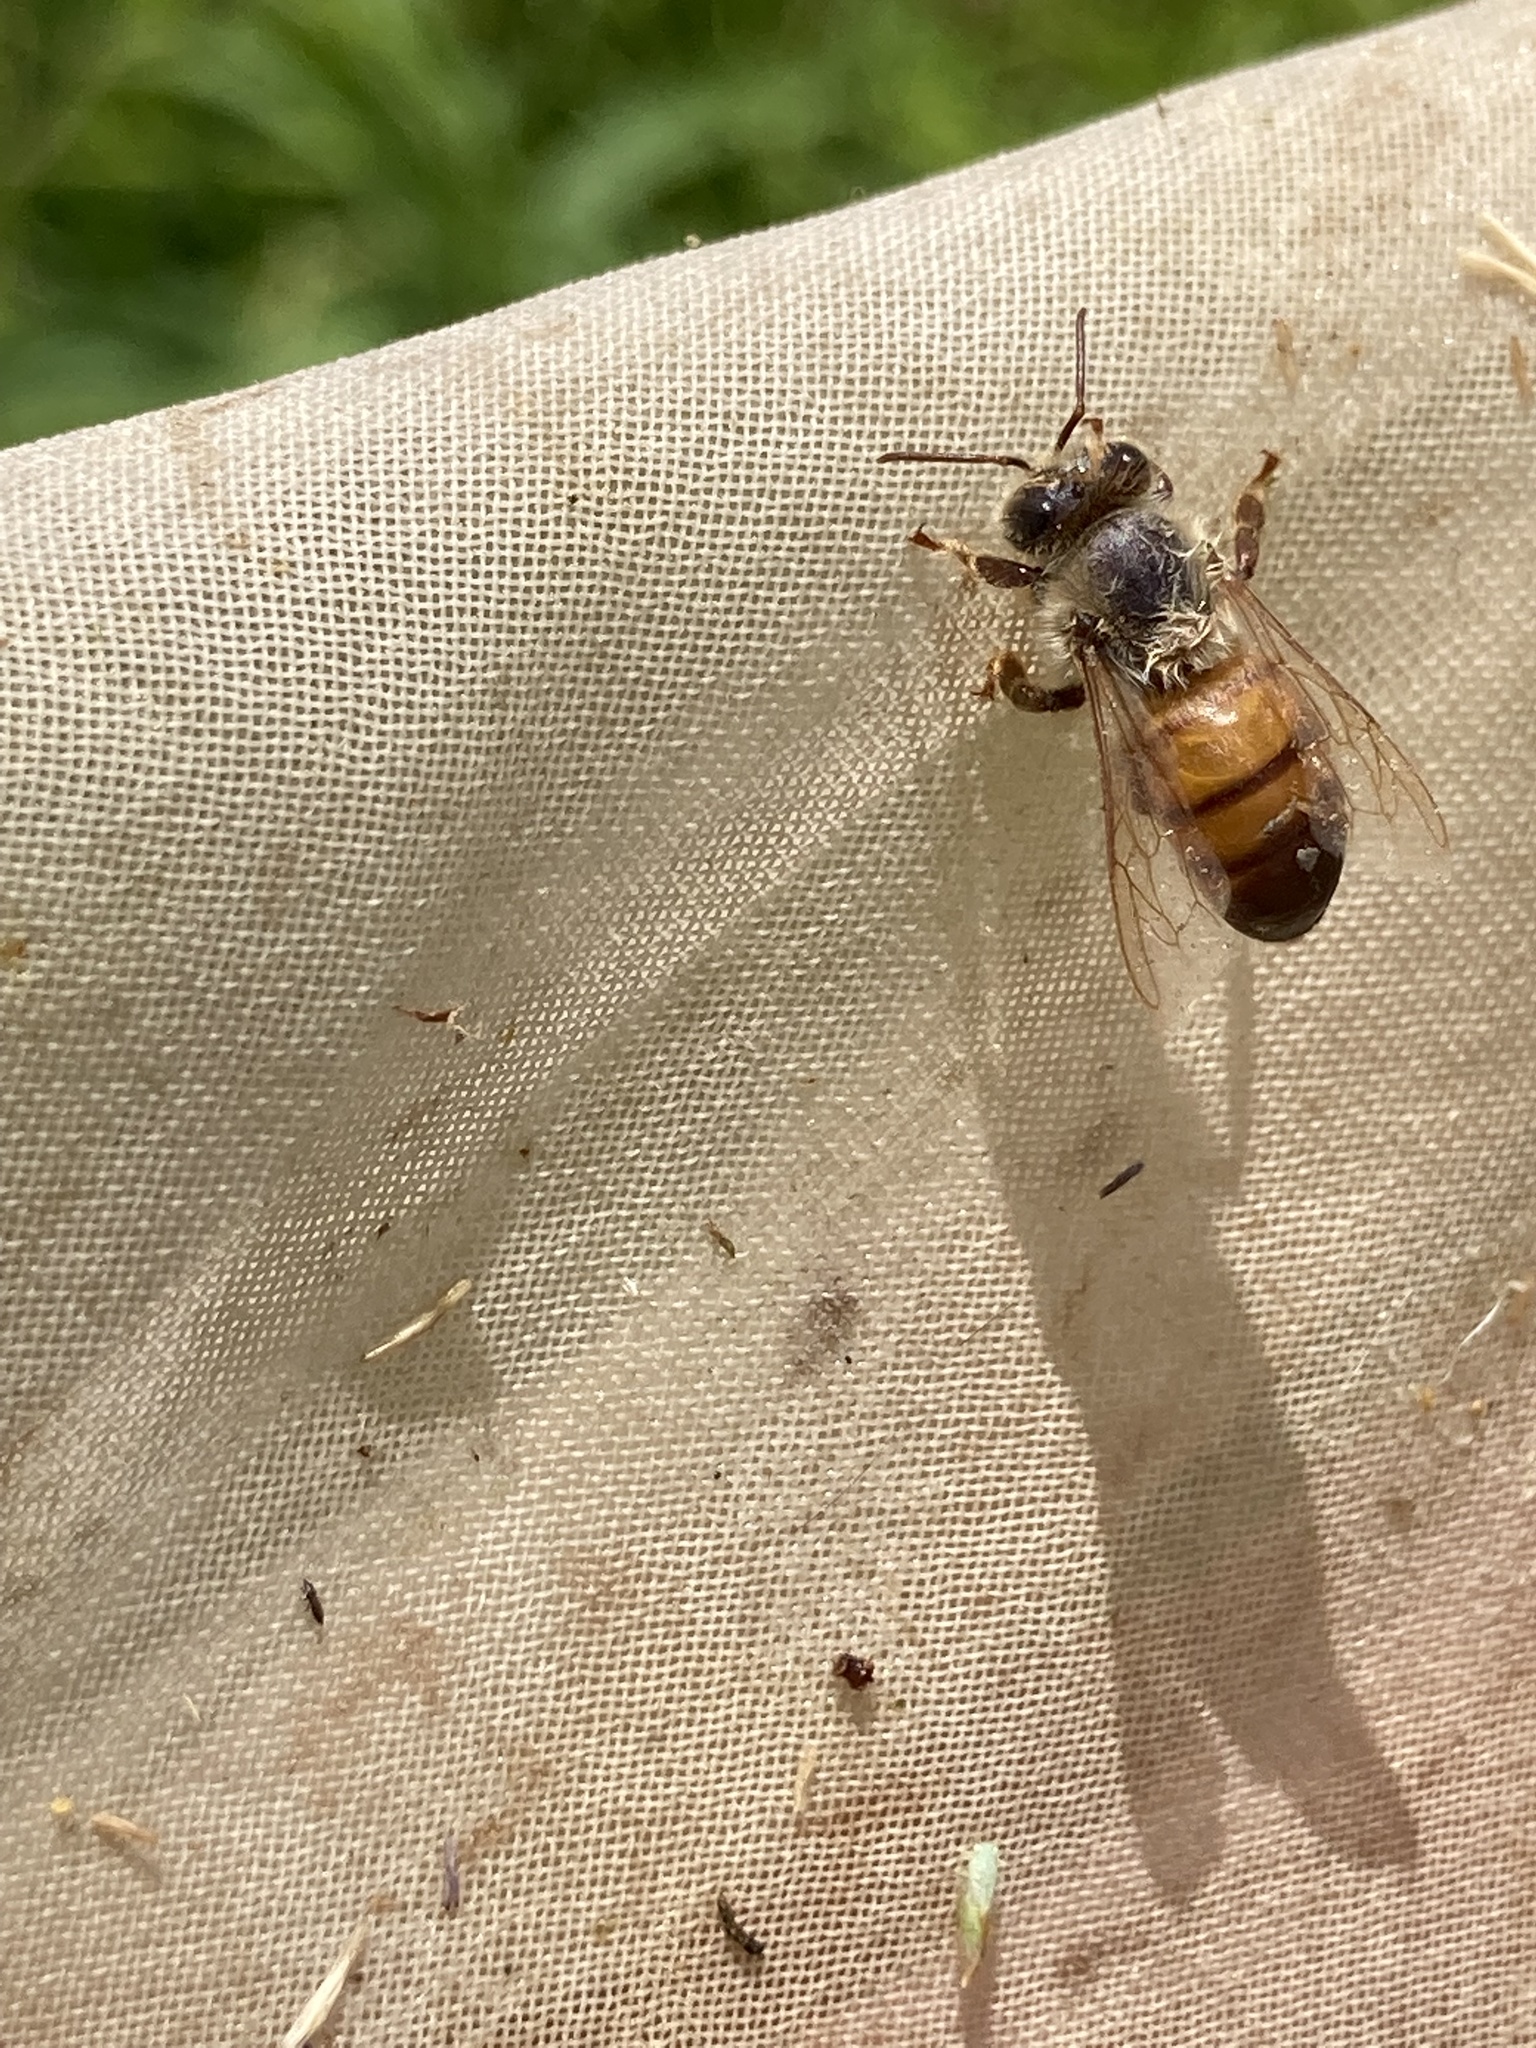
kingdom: Animalia
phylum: Arthropoda
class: Insecta
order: Hymenoptera
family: Apidae
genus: Apis
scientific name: Apis mellifera
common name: Honey bee
